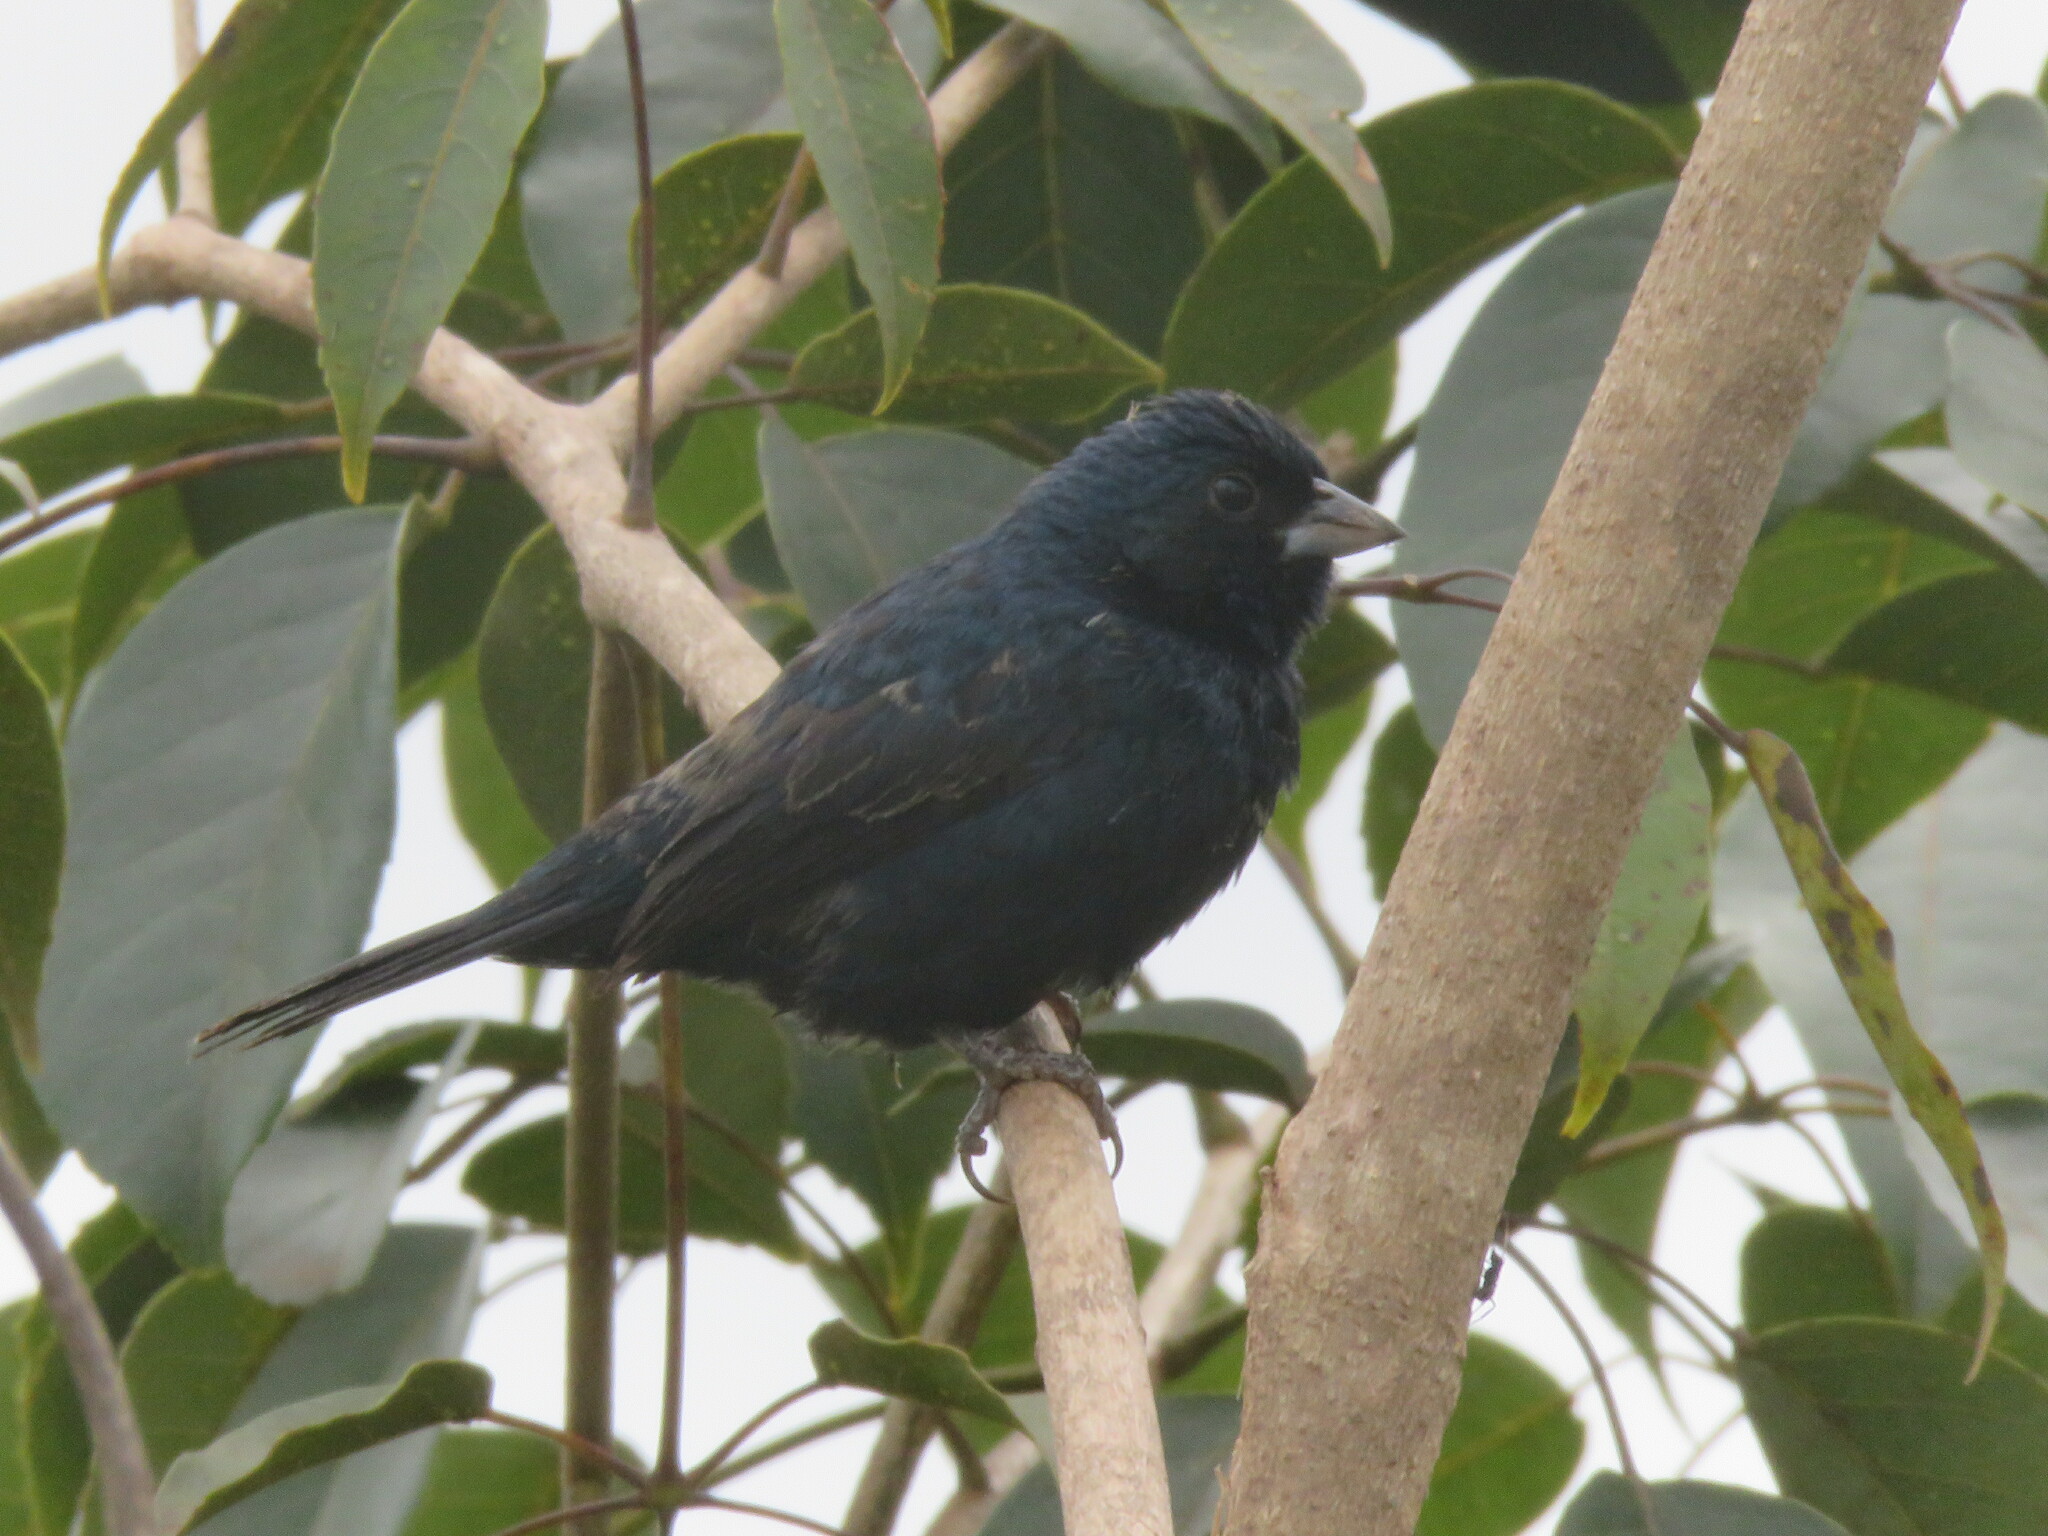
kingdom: Animalia
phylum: Chordata
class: Aves
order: Passeriformes
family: Thraupidae
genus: Volatinia
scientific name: Volatinia jacarina
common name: Blue-black grassquit
